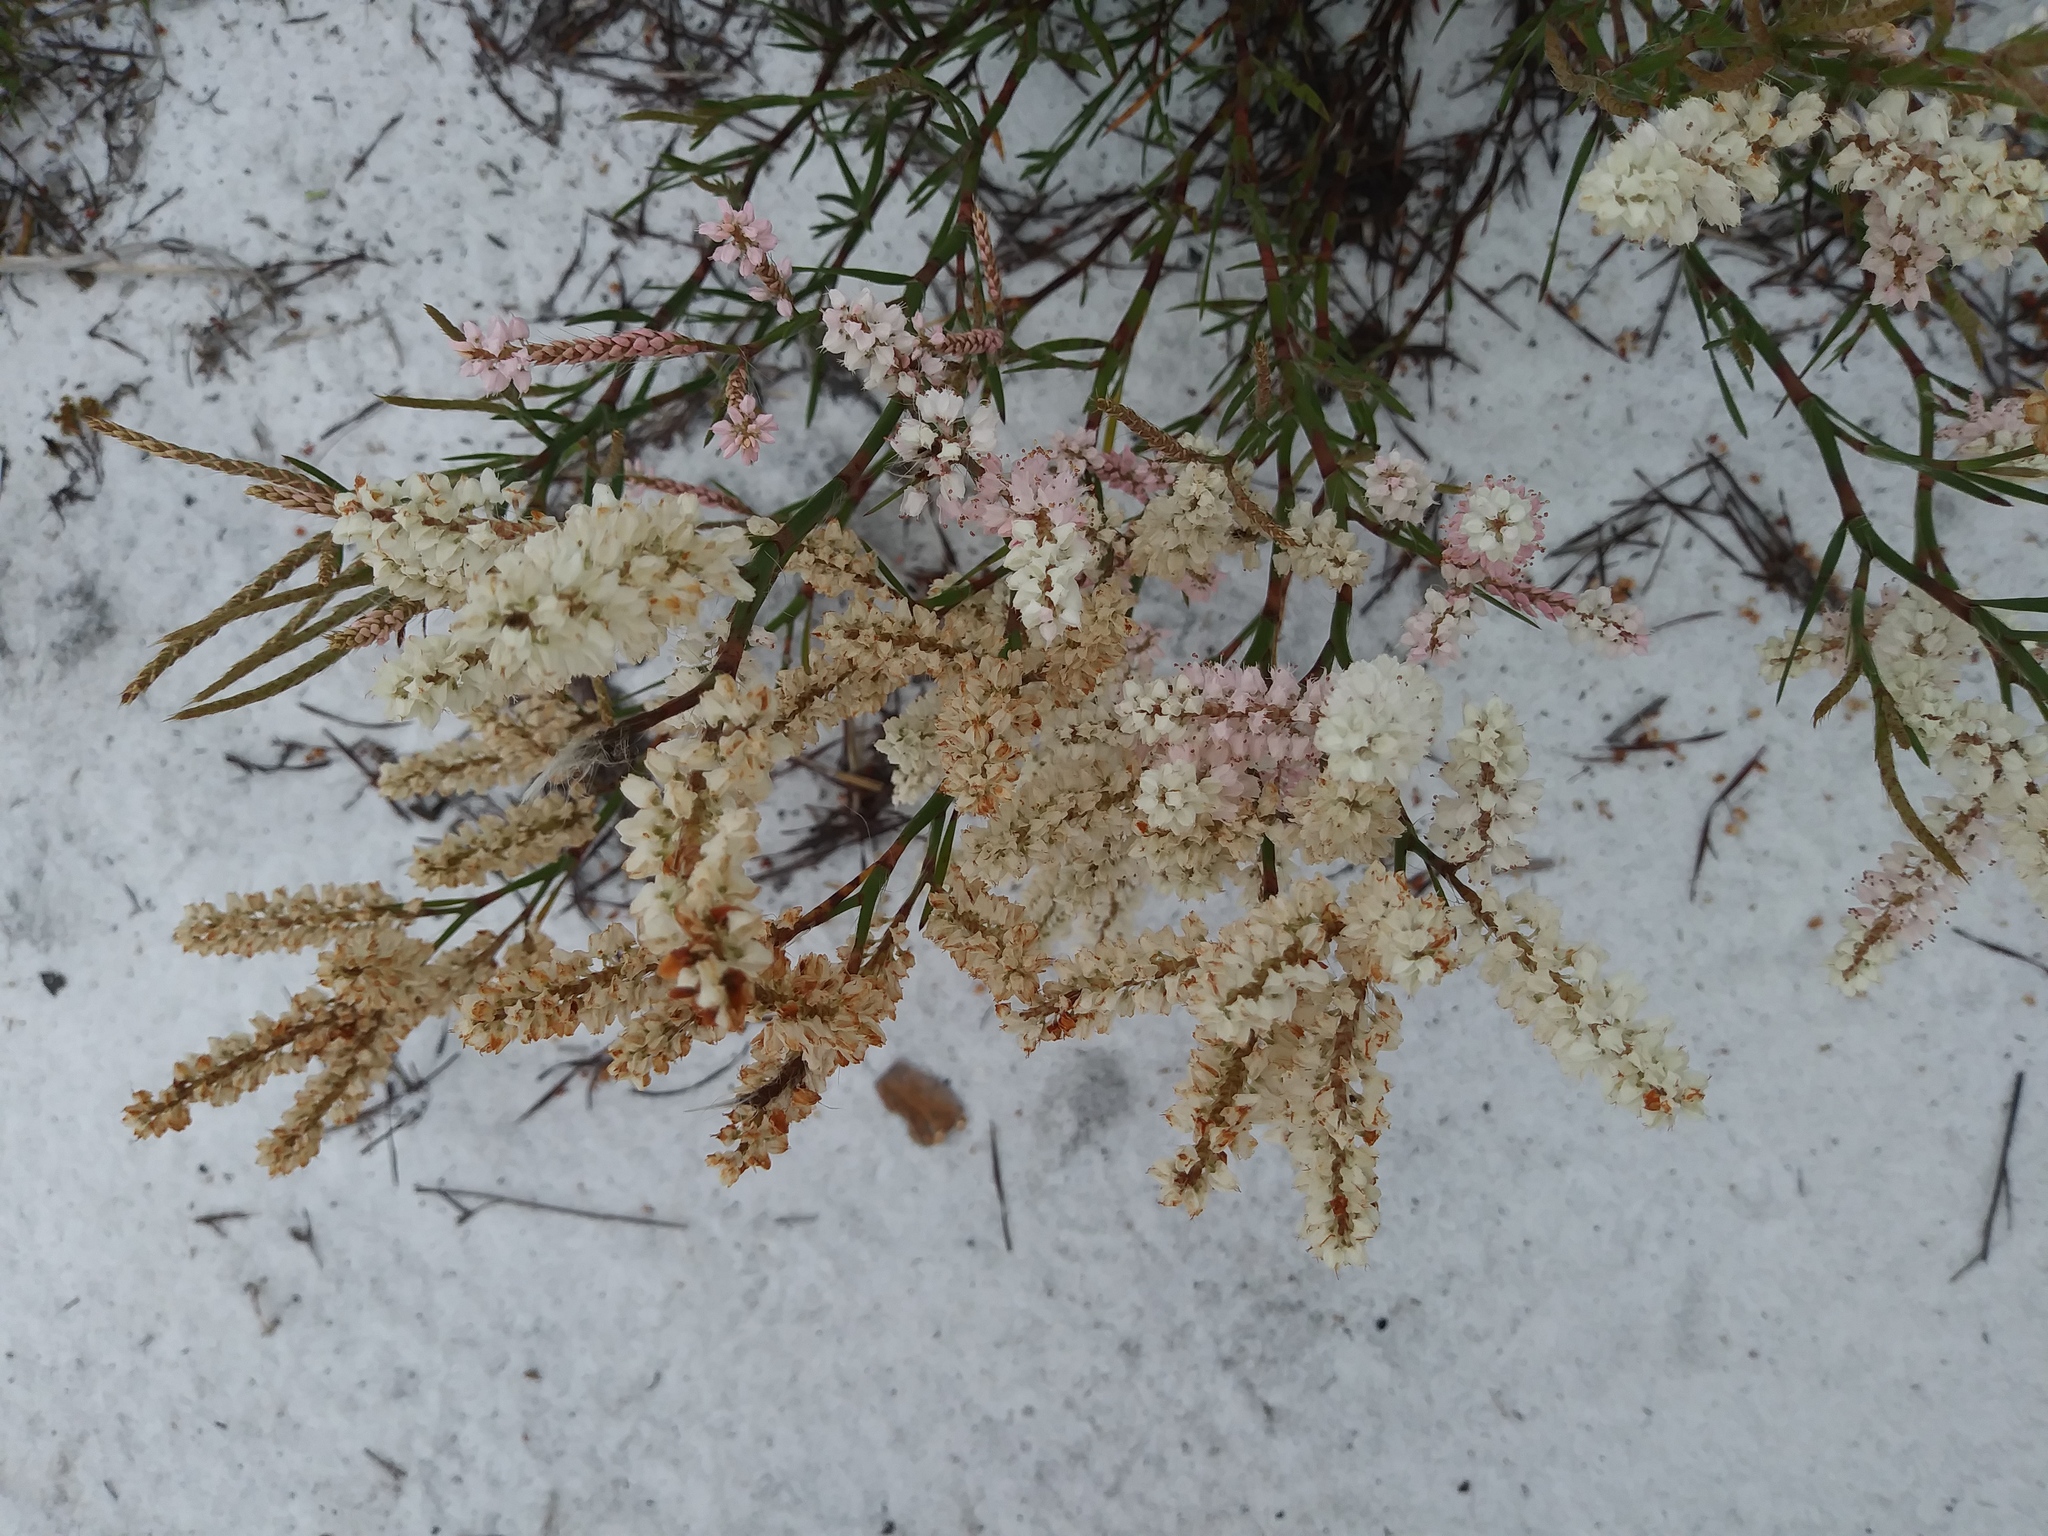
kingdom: Plantae
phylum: Tracheophyta
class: Magnoliopsida
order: Caryophyllales
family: Polygonaceae
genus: Polygonella
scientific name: Polygonella robusta
